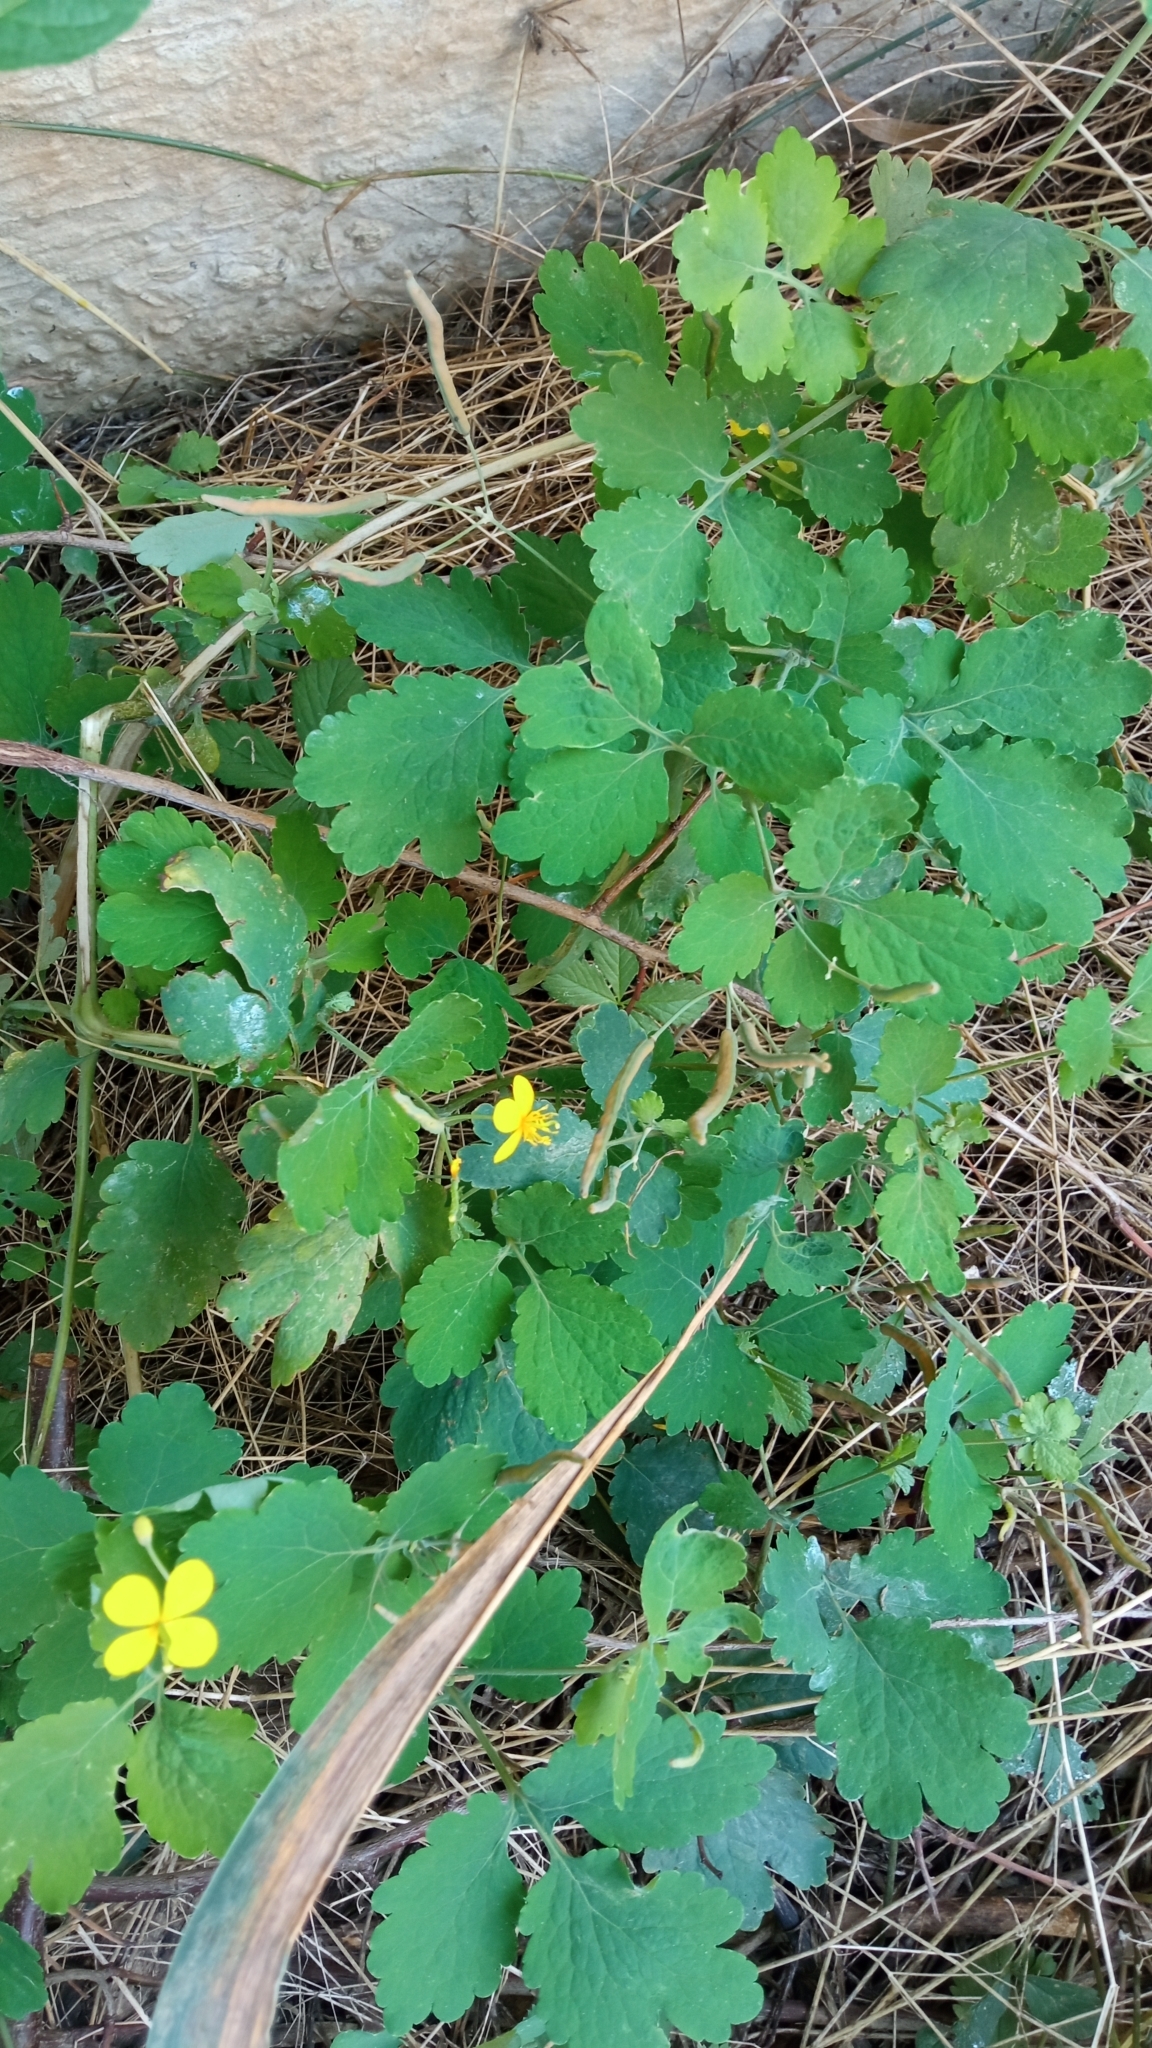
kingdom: Plantae
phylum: Tracheophyta
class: Magnoliopsida
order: Ranunculales
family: Papaveraceae
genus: Chelidonium
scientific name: Chelidonium majus
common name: Greater celandine
